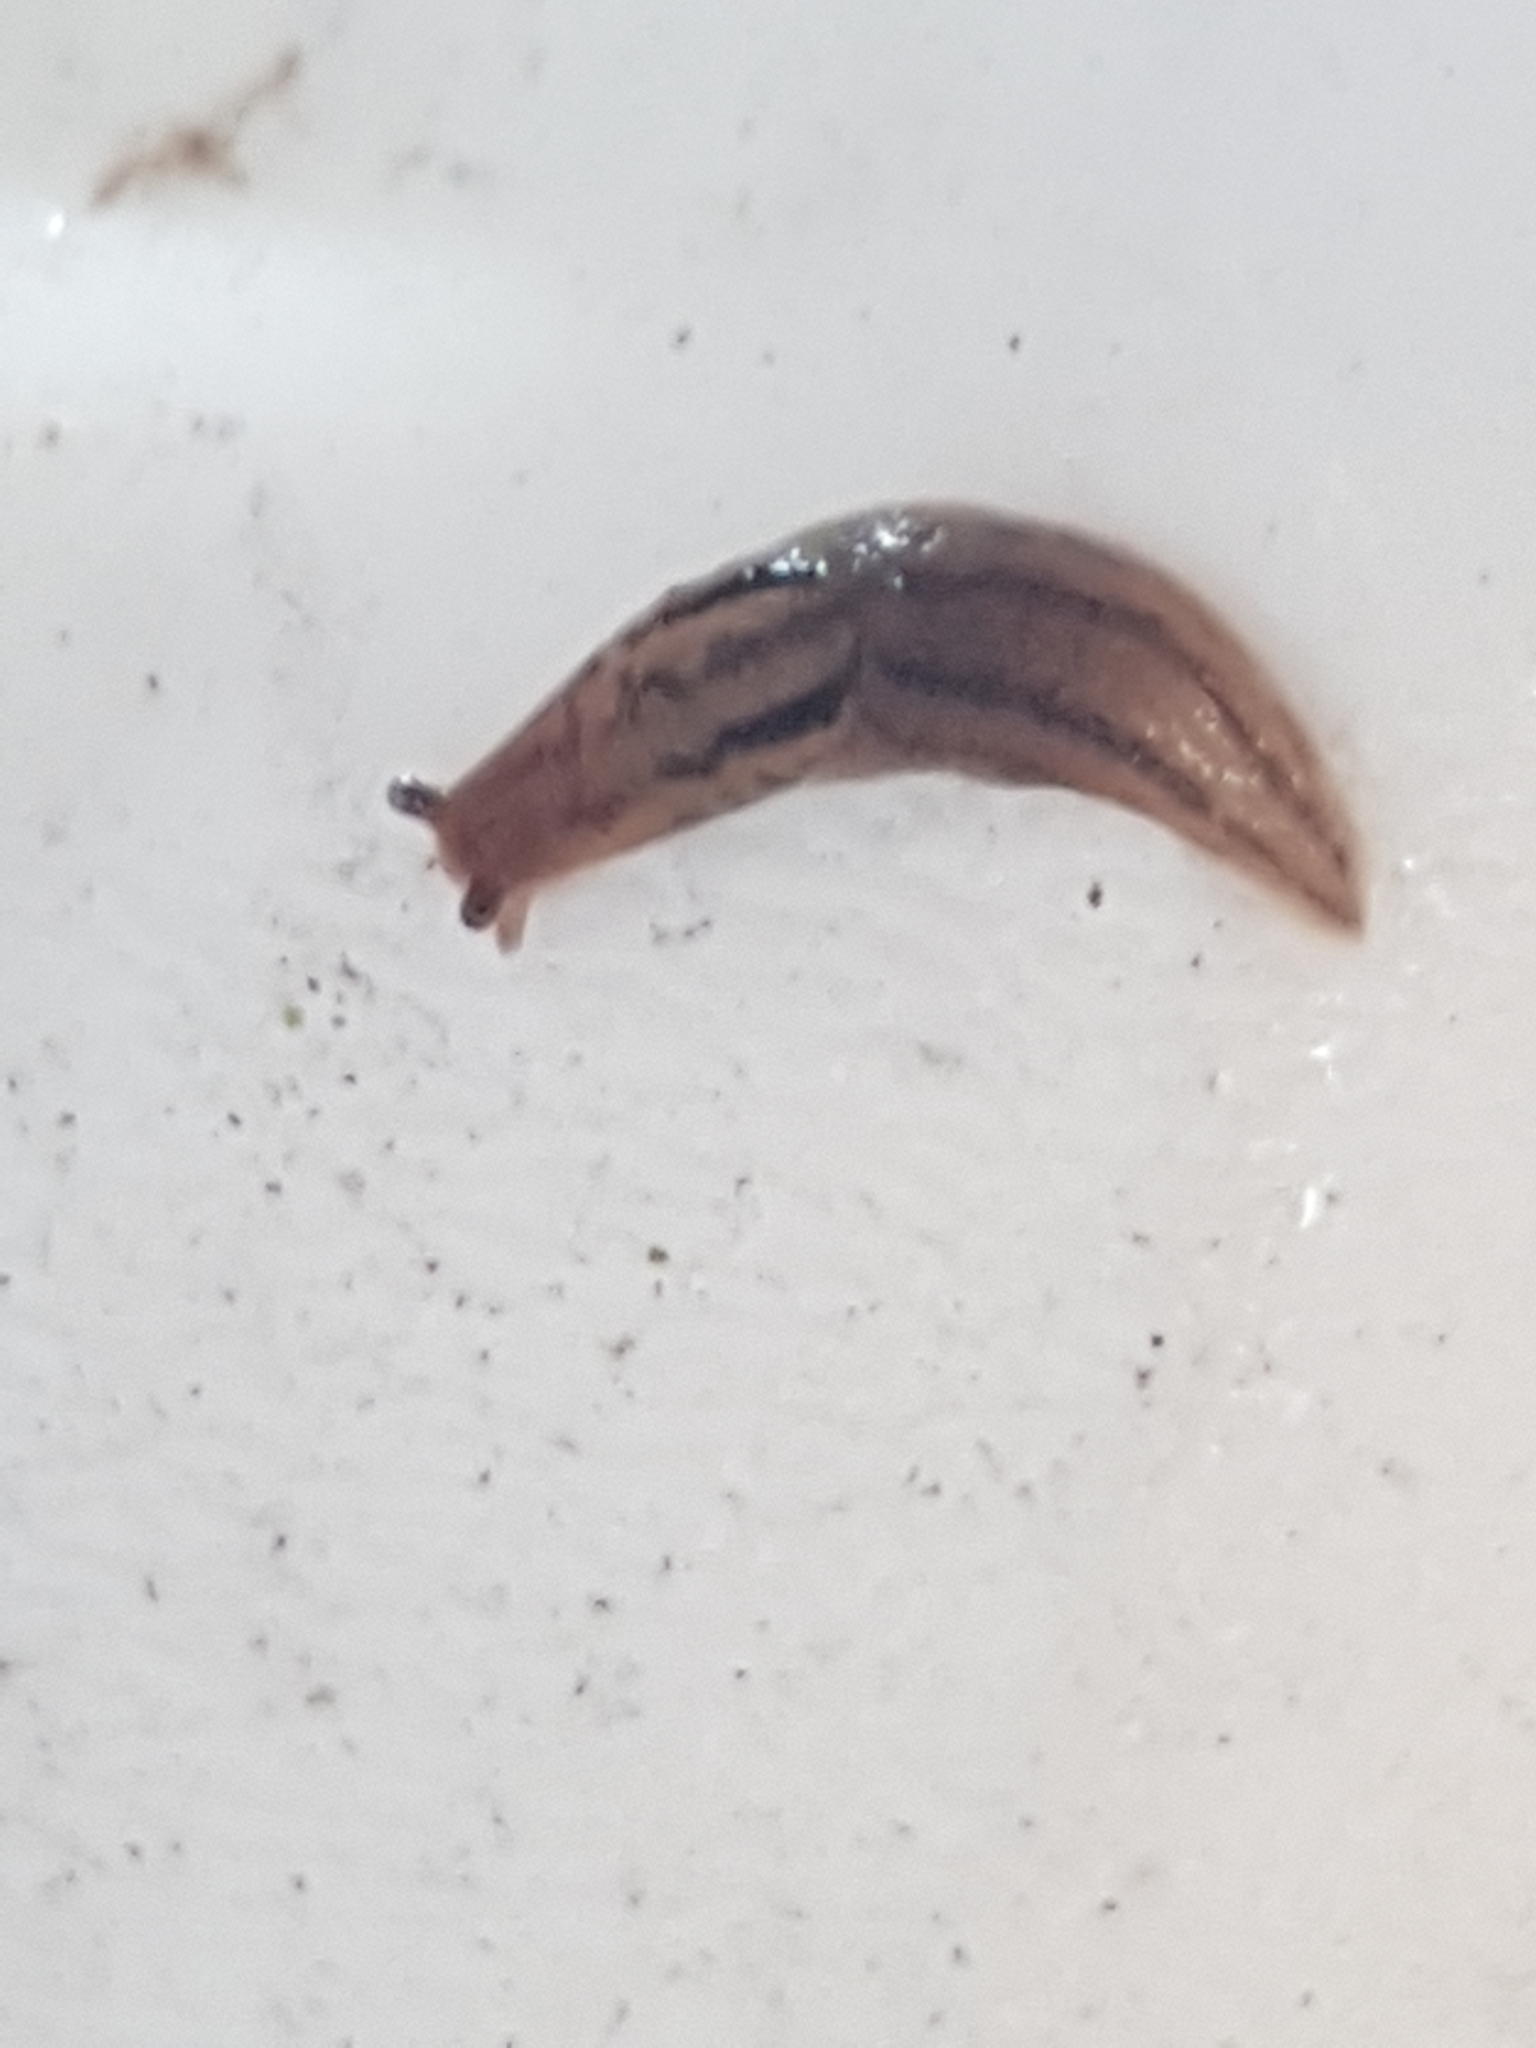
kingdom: Animalia
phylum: Mollusca
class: Gastropoda
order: Stylommatophora
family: Limacidae
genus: Ambigolimax
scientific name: Ambigolimax
